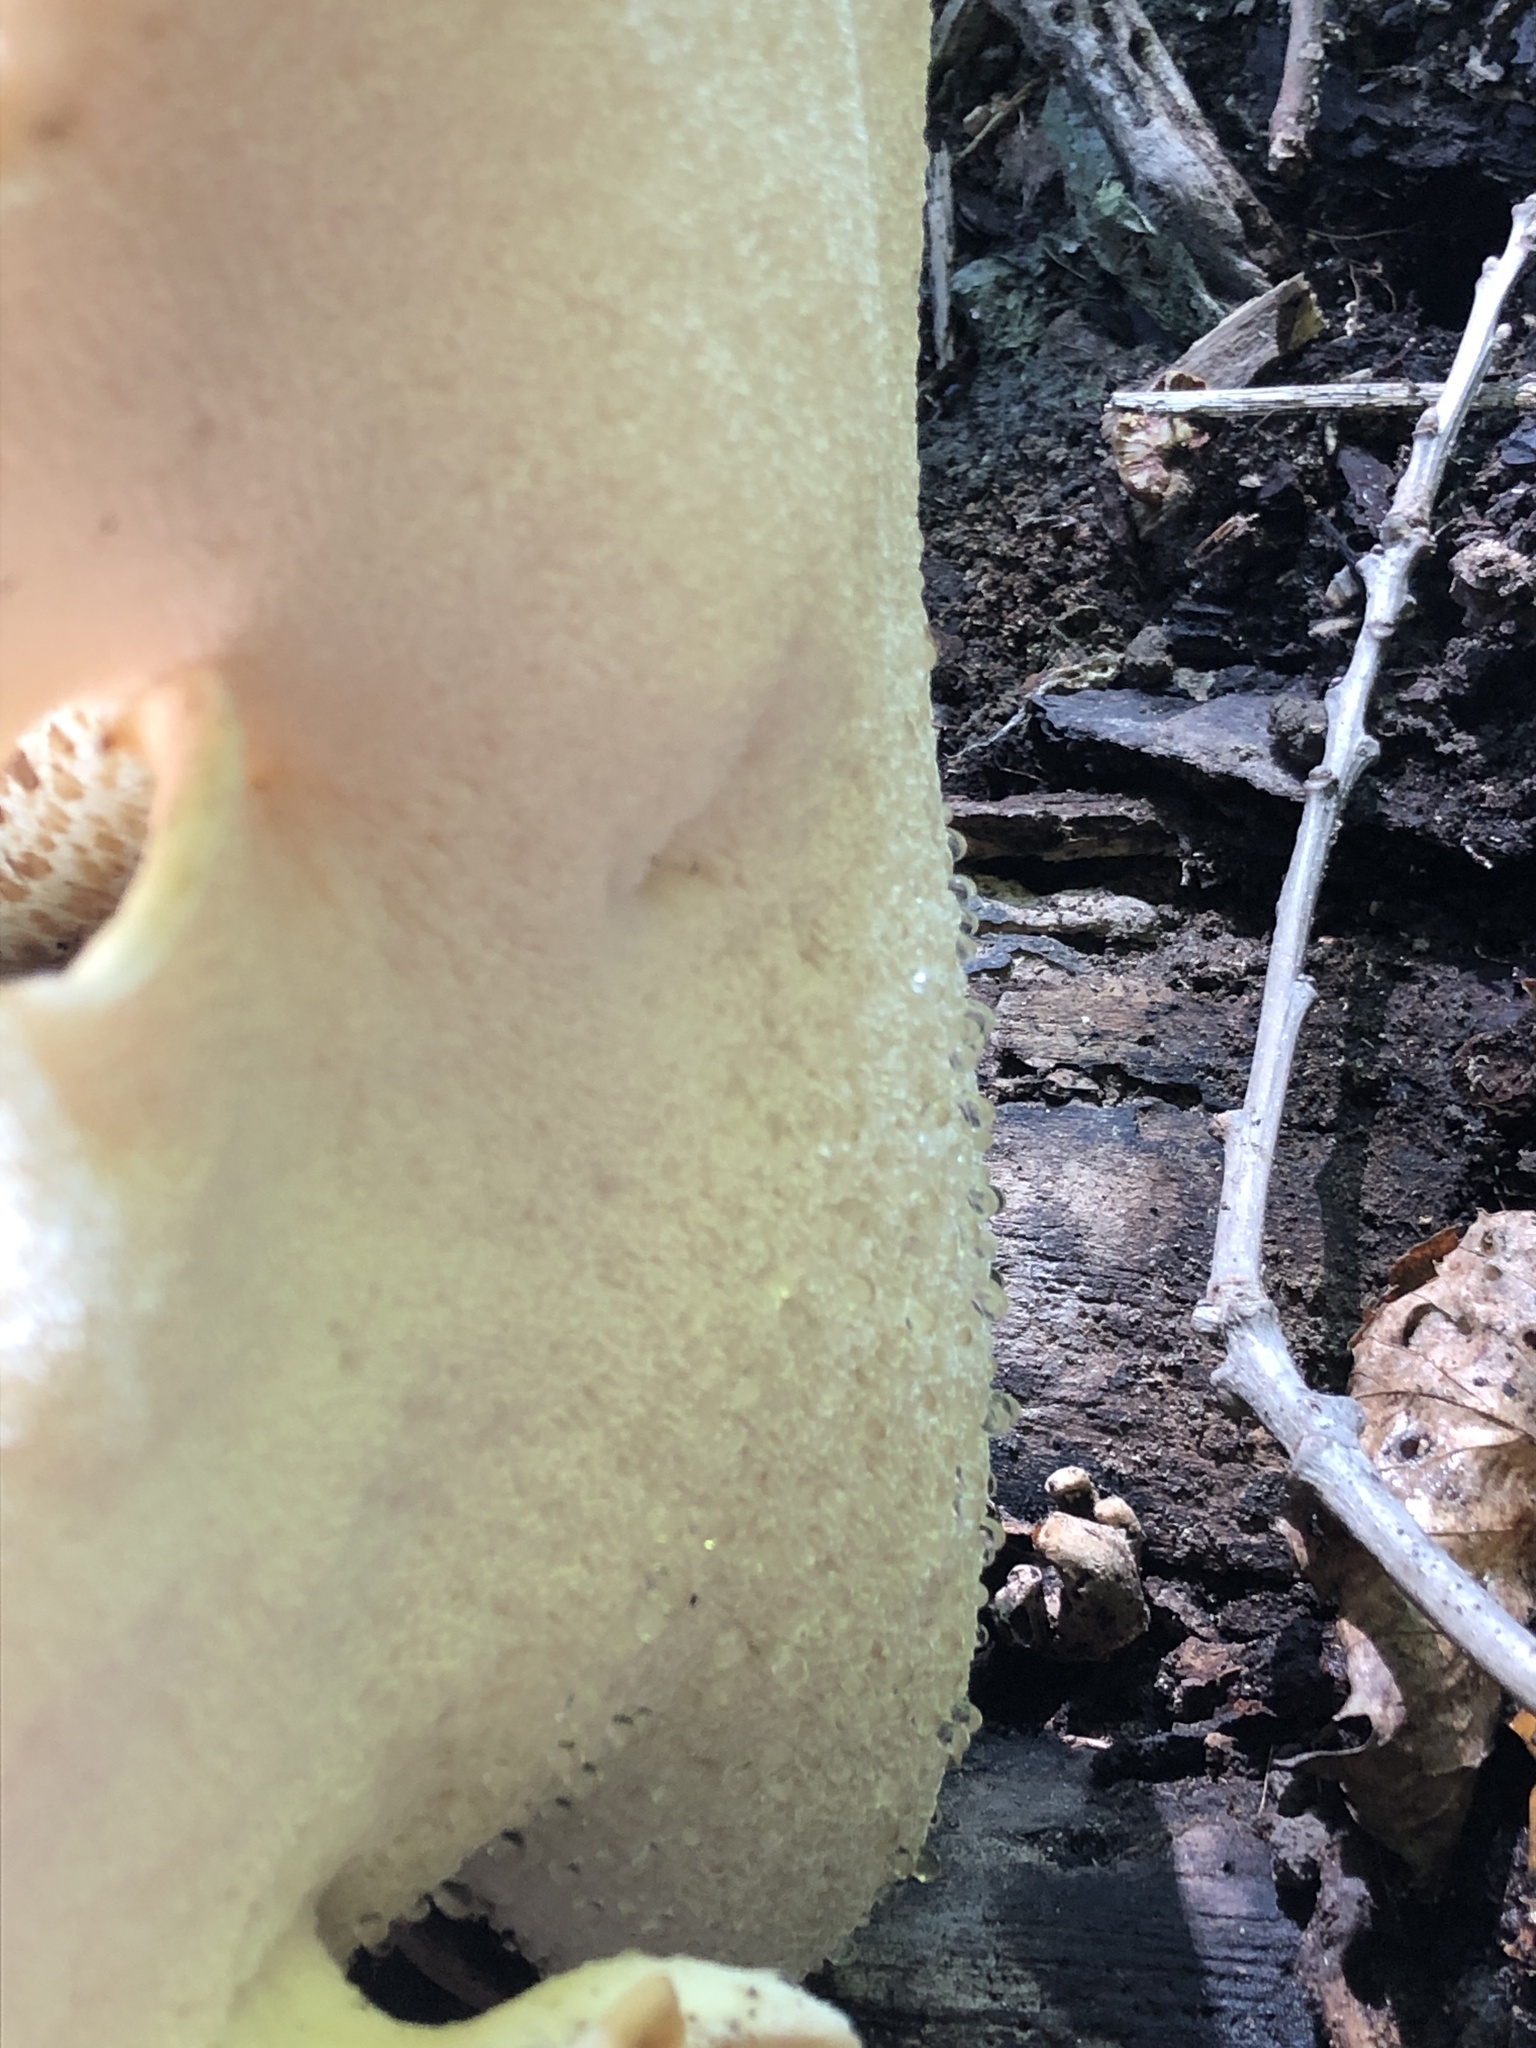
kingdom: Fungi
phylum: Basidiomycota
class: Agaricomycetes
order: Polyporales
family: Polyporaceae
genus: Cerioporus
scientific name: Cerioporus squamosus
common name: Dryad's saddle
